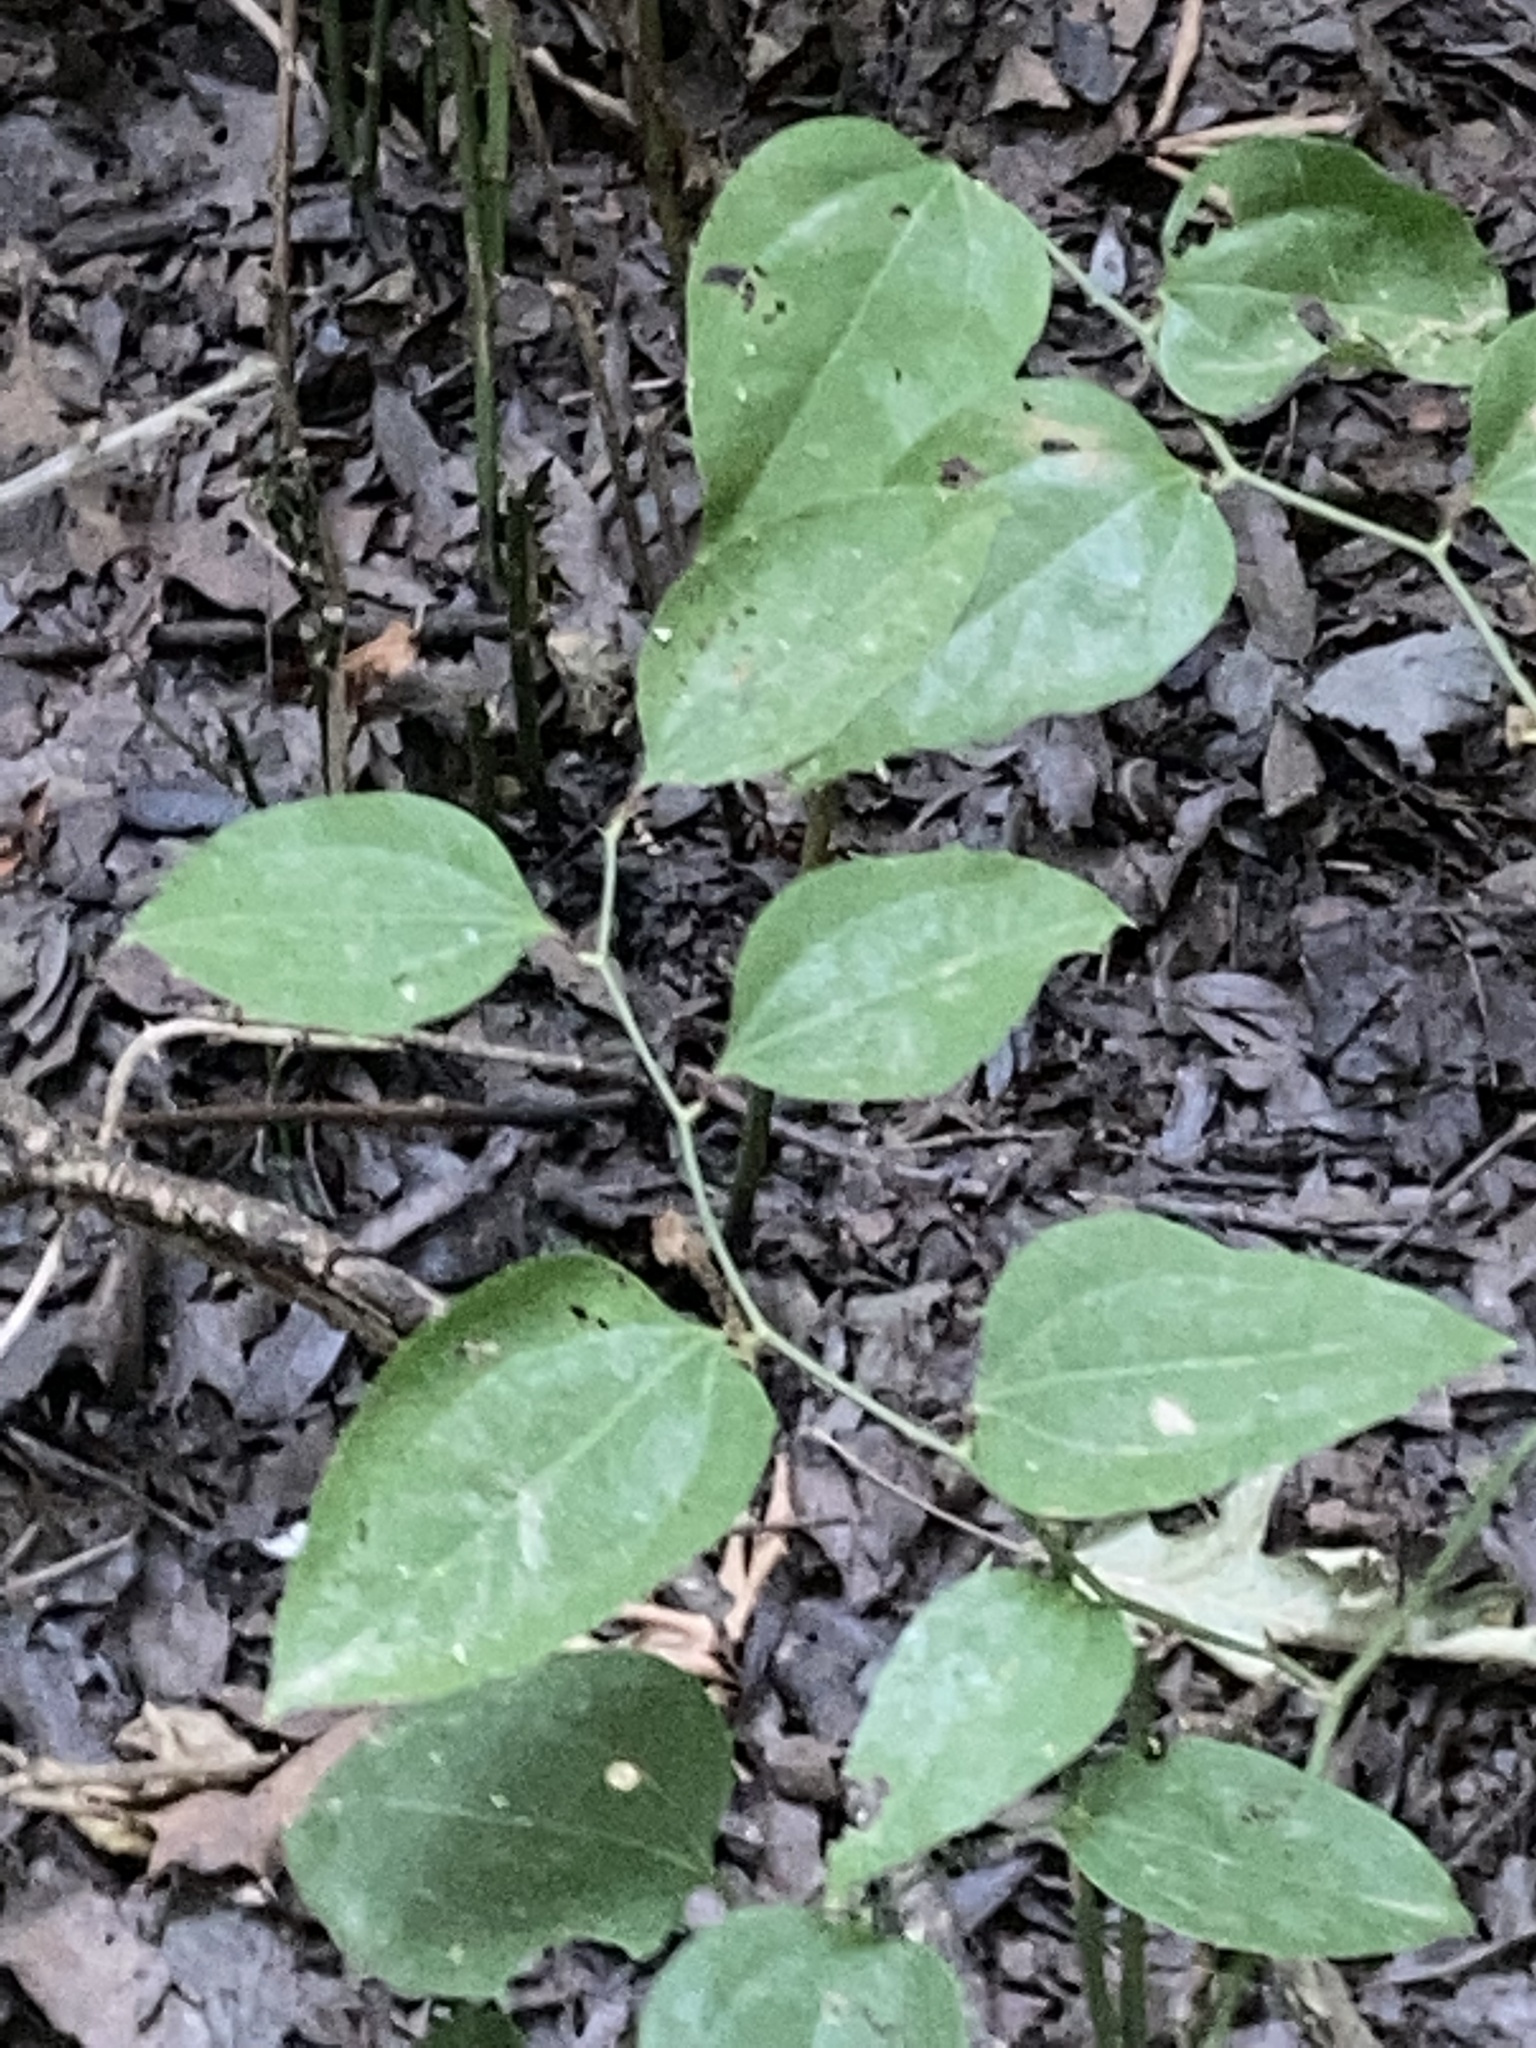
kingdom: Plantae
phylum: Tracheophyta
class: Liliopsida
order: Liliales
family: Smilacaceae
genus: Smilax
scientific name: Smilax rotundifolia
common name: Bullbriar
